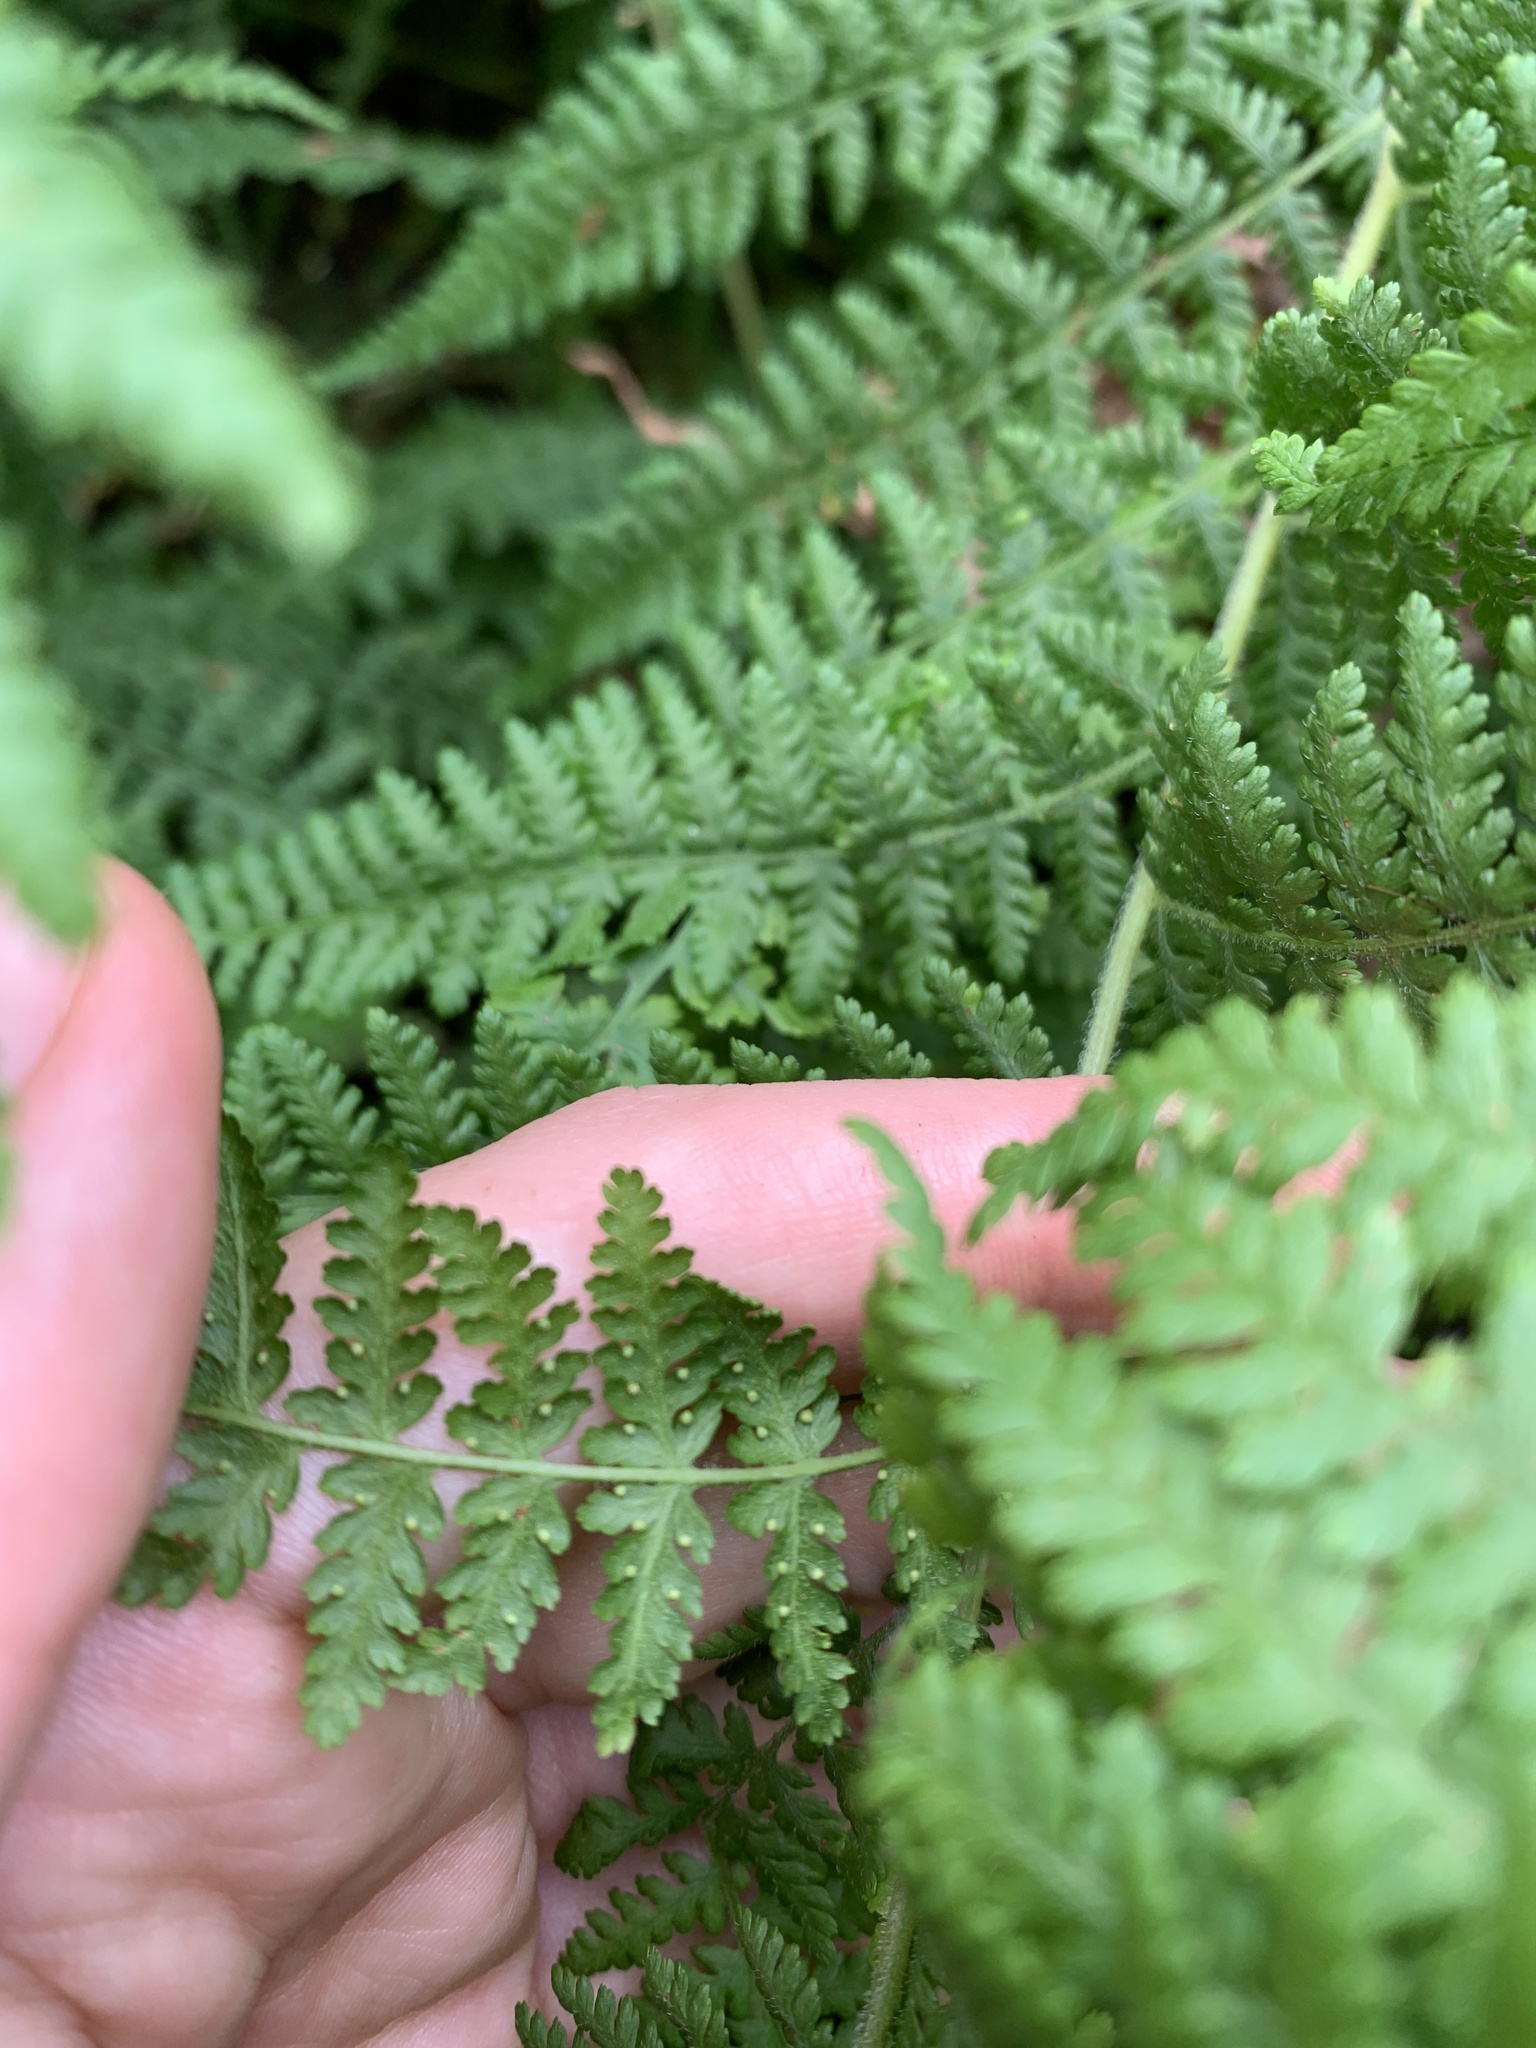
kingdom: Plantae
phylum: Tracheophyta
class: Polypodiopsida
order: Polypodiales
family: Dennstaedtiaceae
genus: Sitobolium
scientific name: Sitobolium punctilobum
